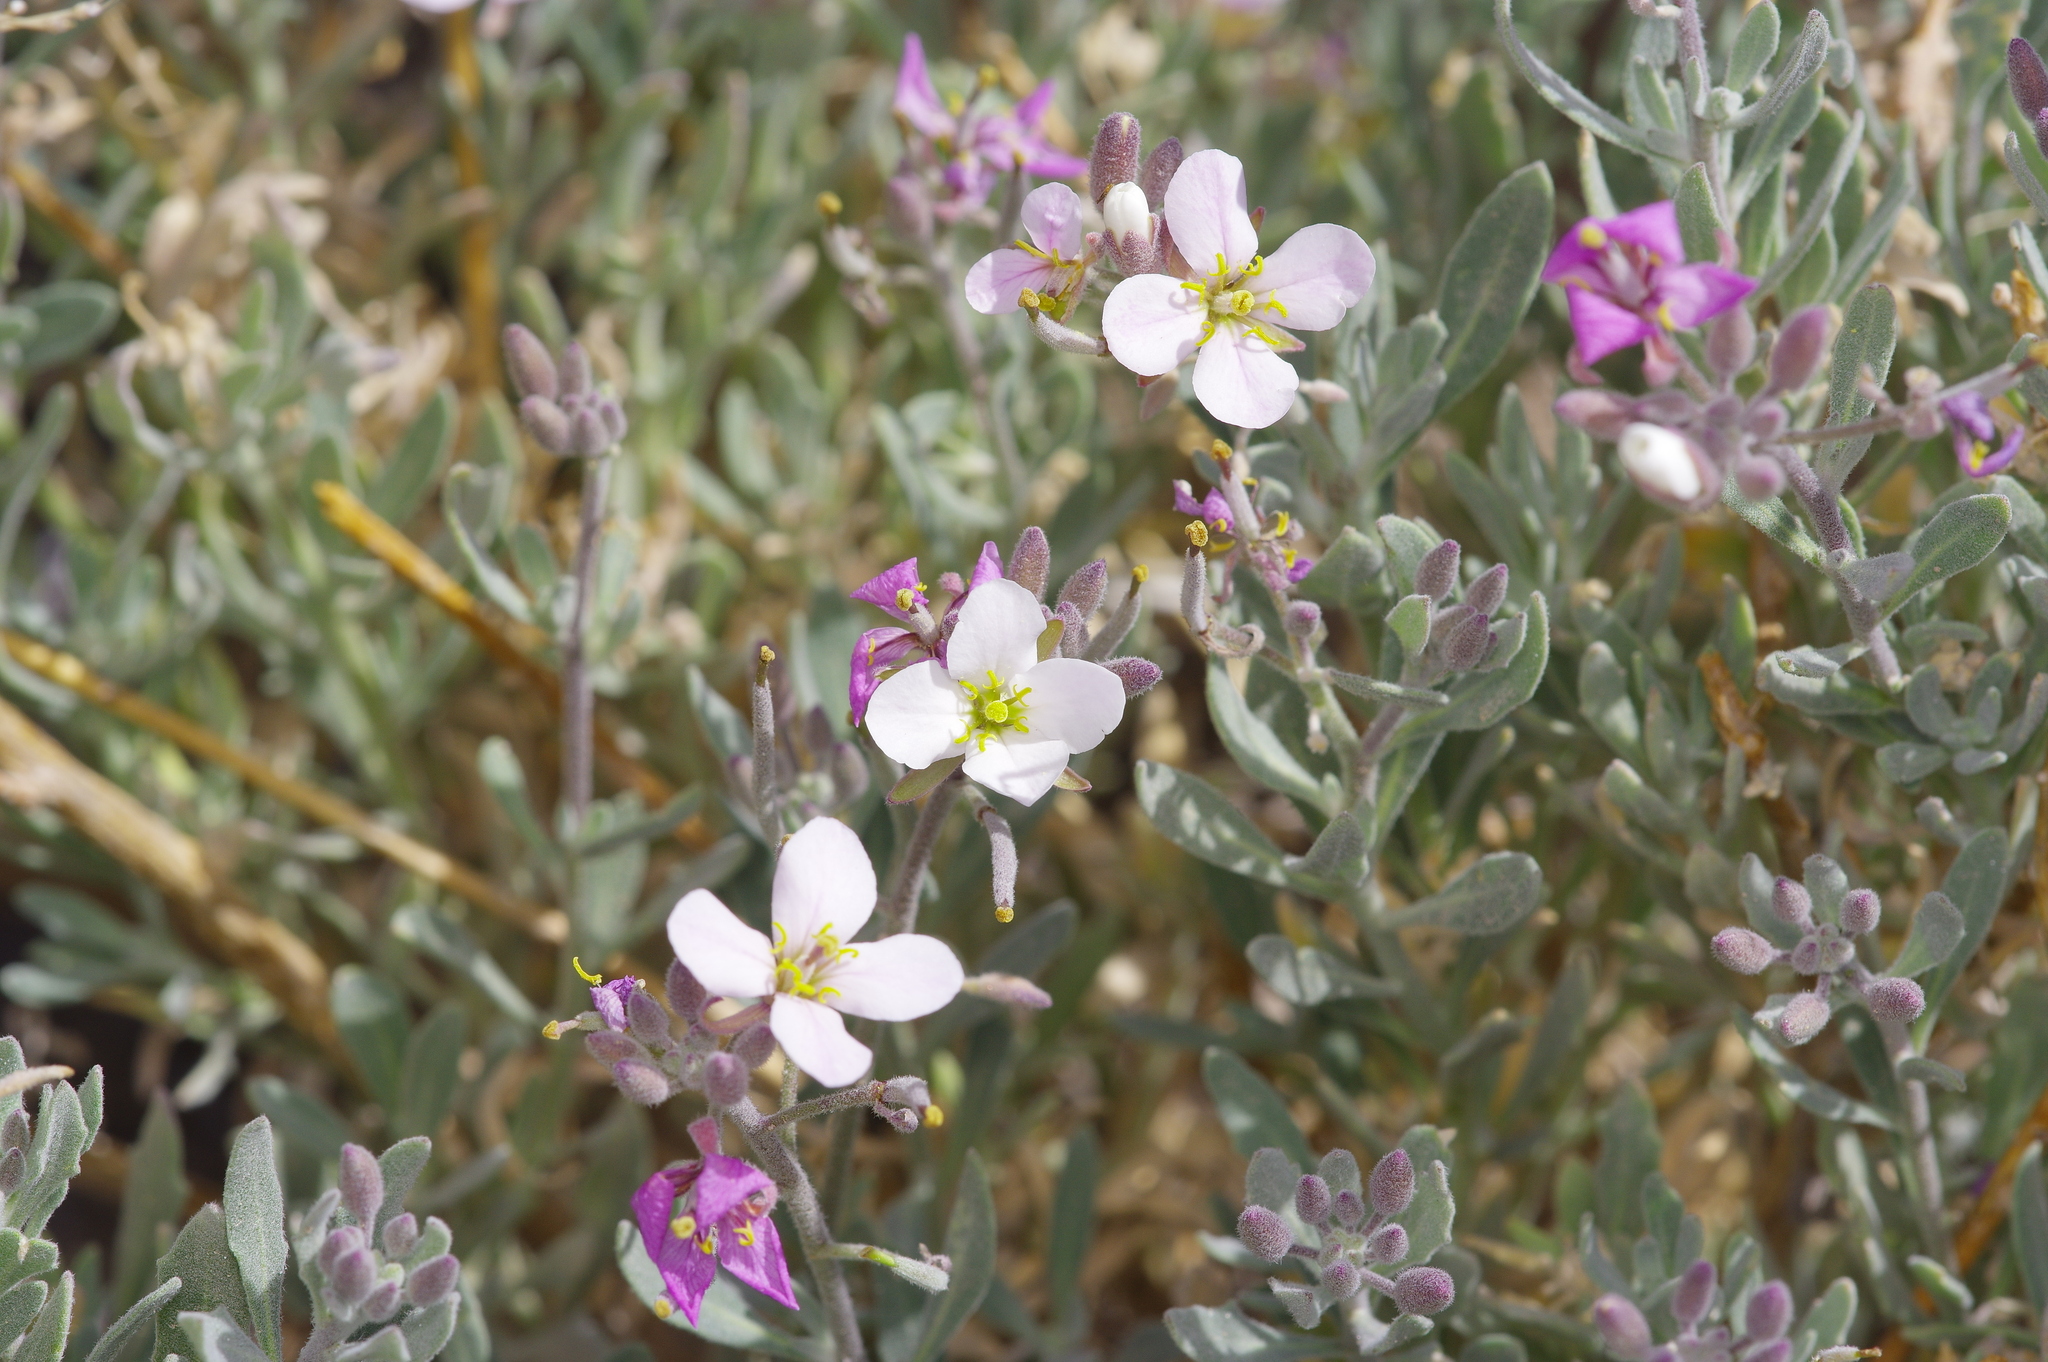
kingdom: Plantae
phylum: Tracheophyta
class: Magnoliopsida
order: Brassicales
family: Brassicaceae
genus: Nerisyrenia
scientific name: Nerisyrenia camporum
